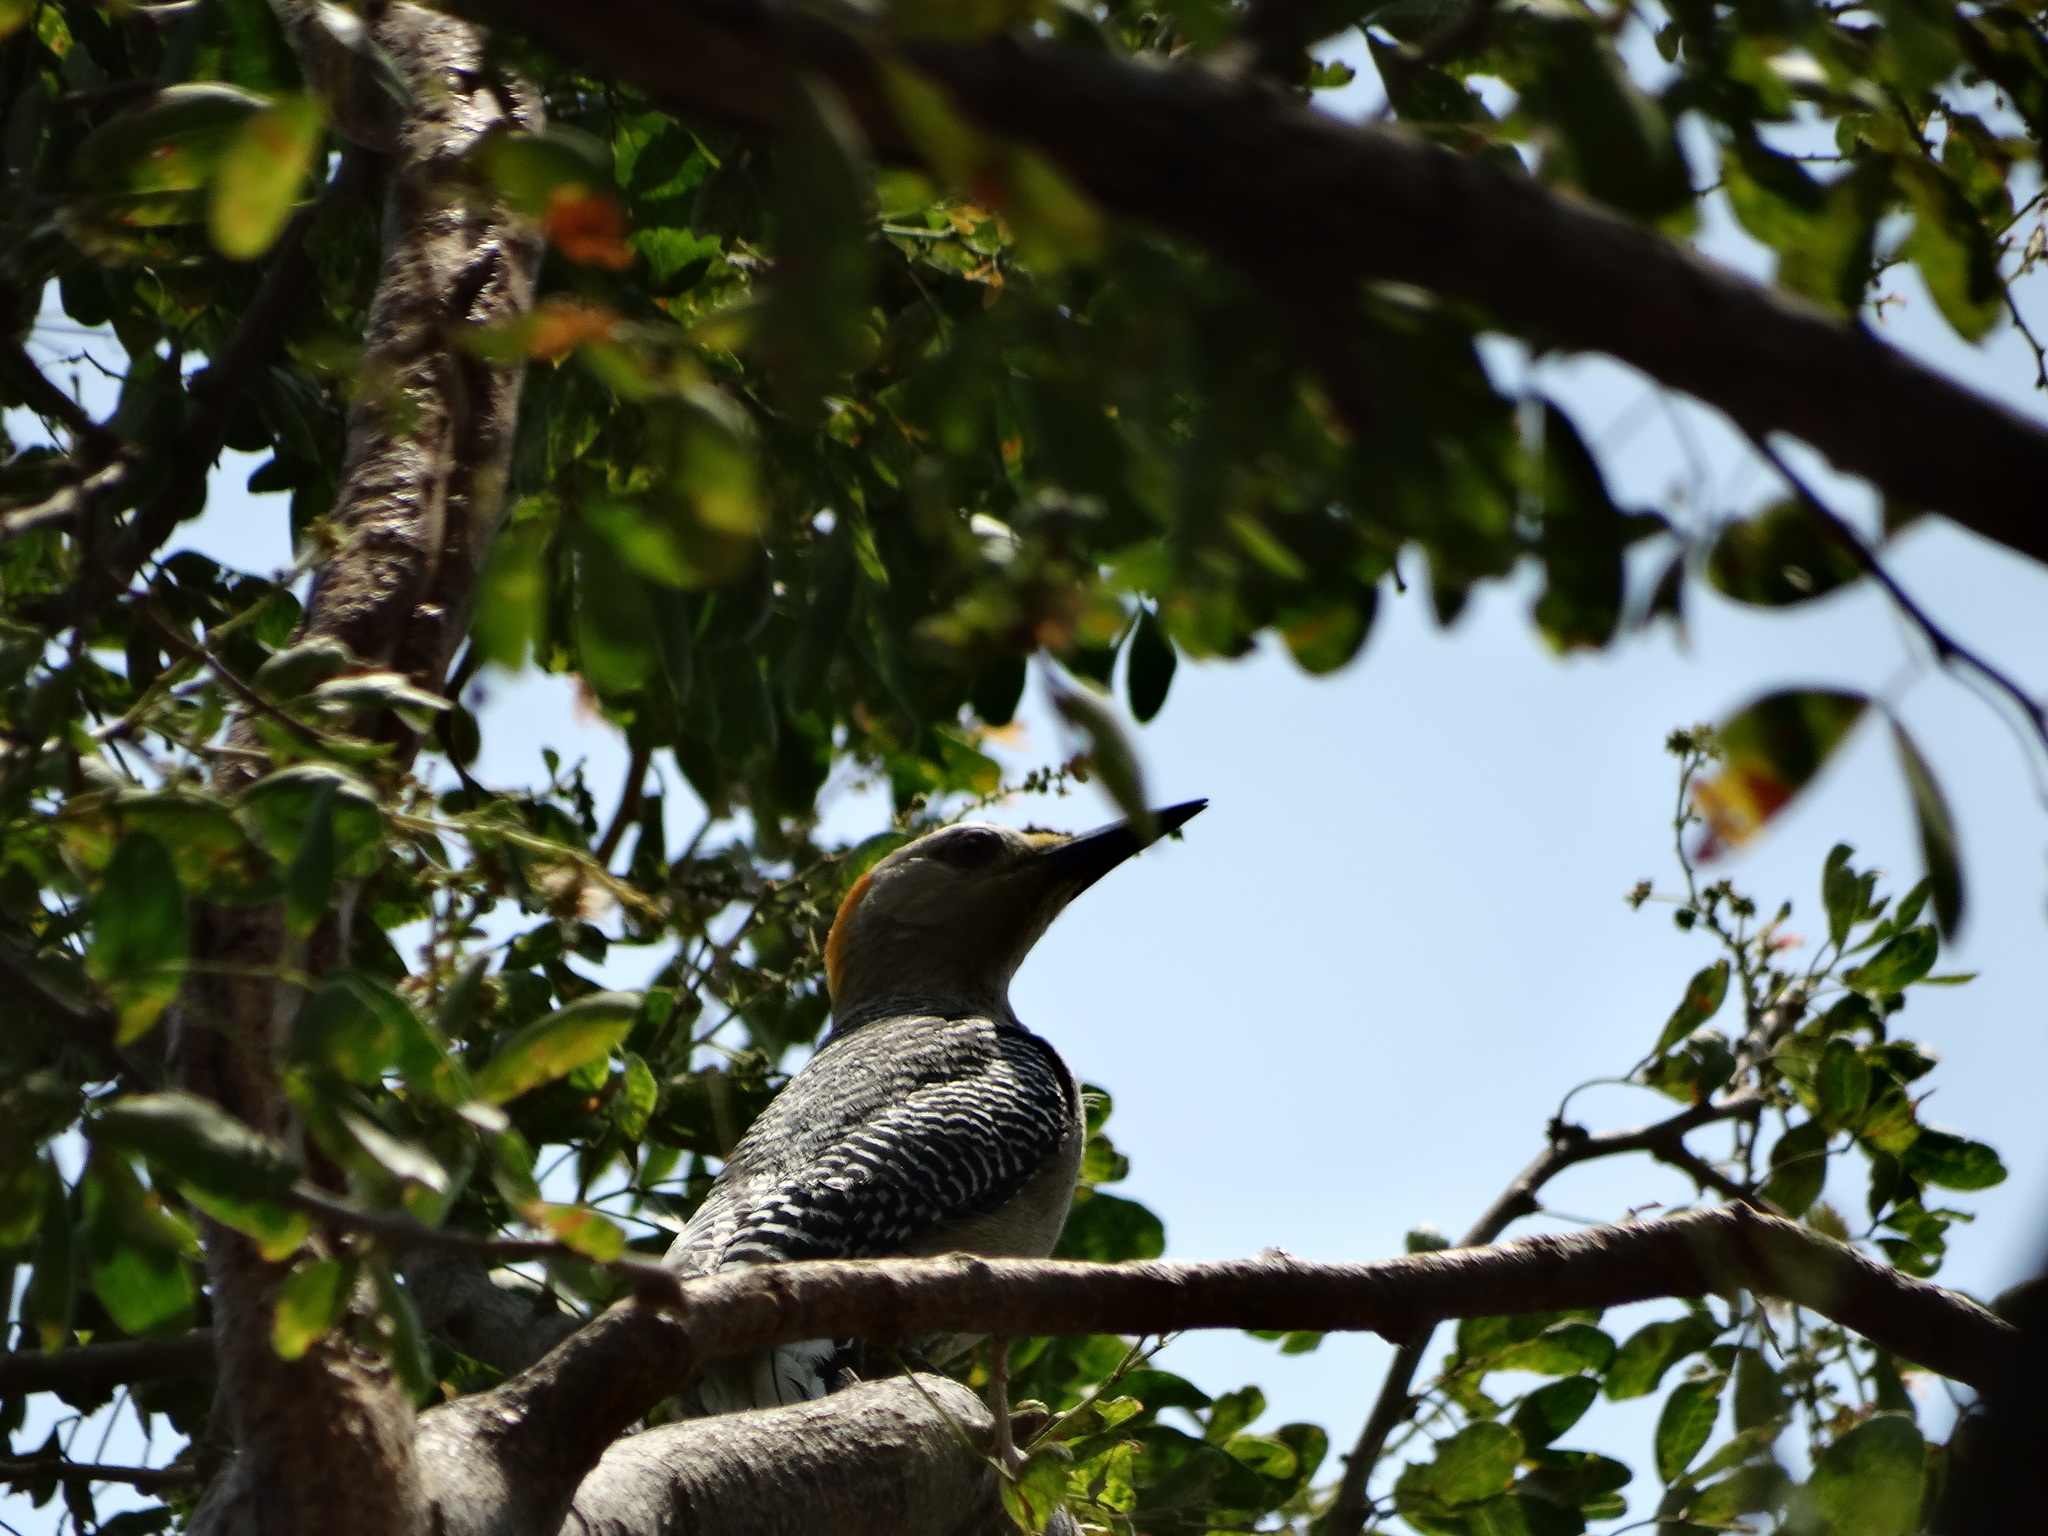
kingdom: Animalia
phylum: Chordata
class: Aves
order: Piciformes
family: Picidae
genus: Melanerpes
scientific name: Melanerpes aurifrons
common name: Golden-fronted woodpecker
